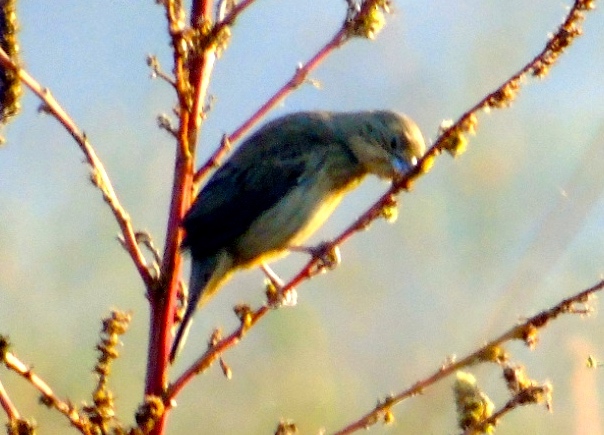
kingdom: Animalia
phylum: Chordata
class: Aves
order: Passeriformes
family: Thraupidae
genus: Volatinia
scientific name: Volatinia jacarina
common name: Blue-black grassquit
